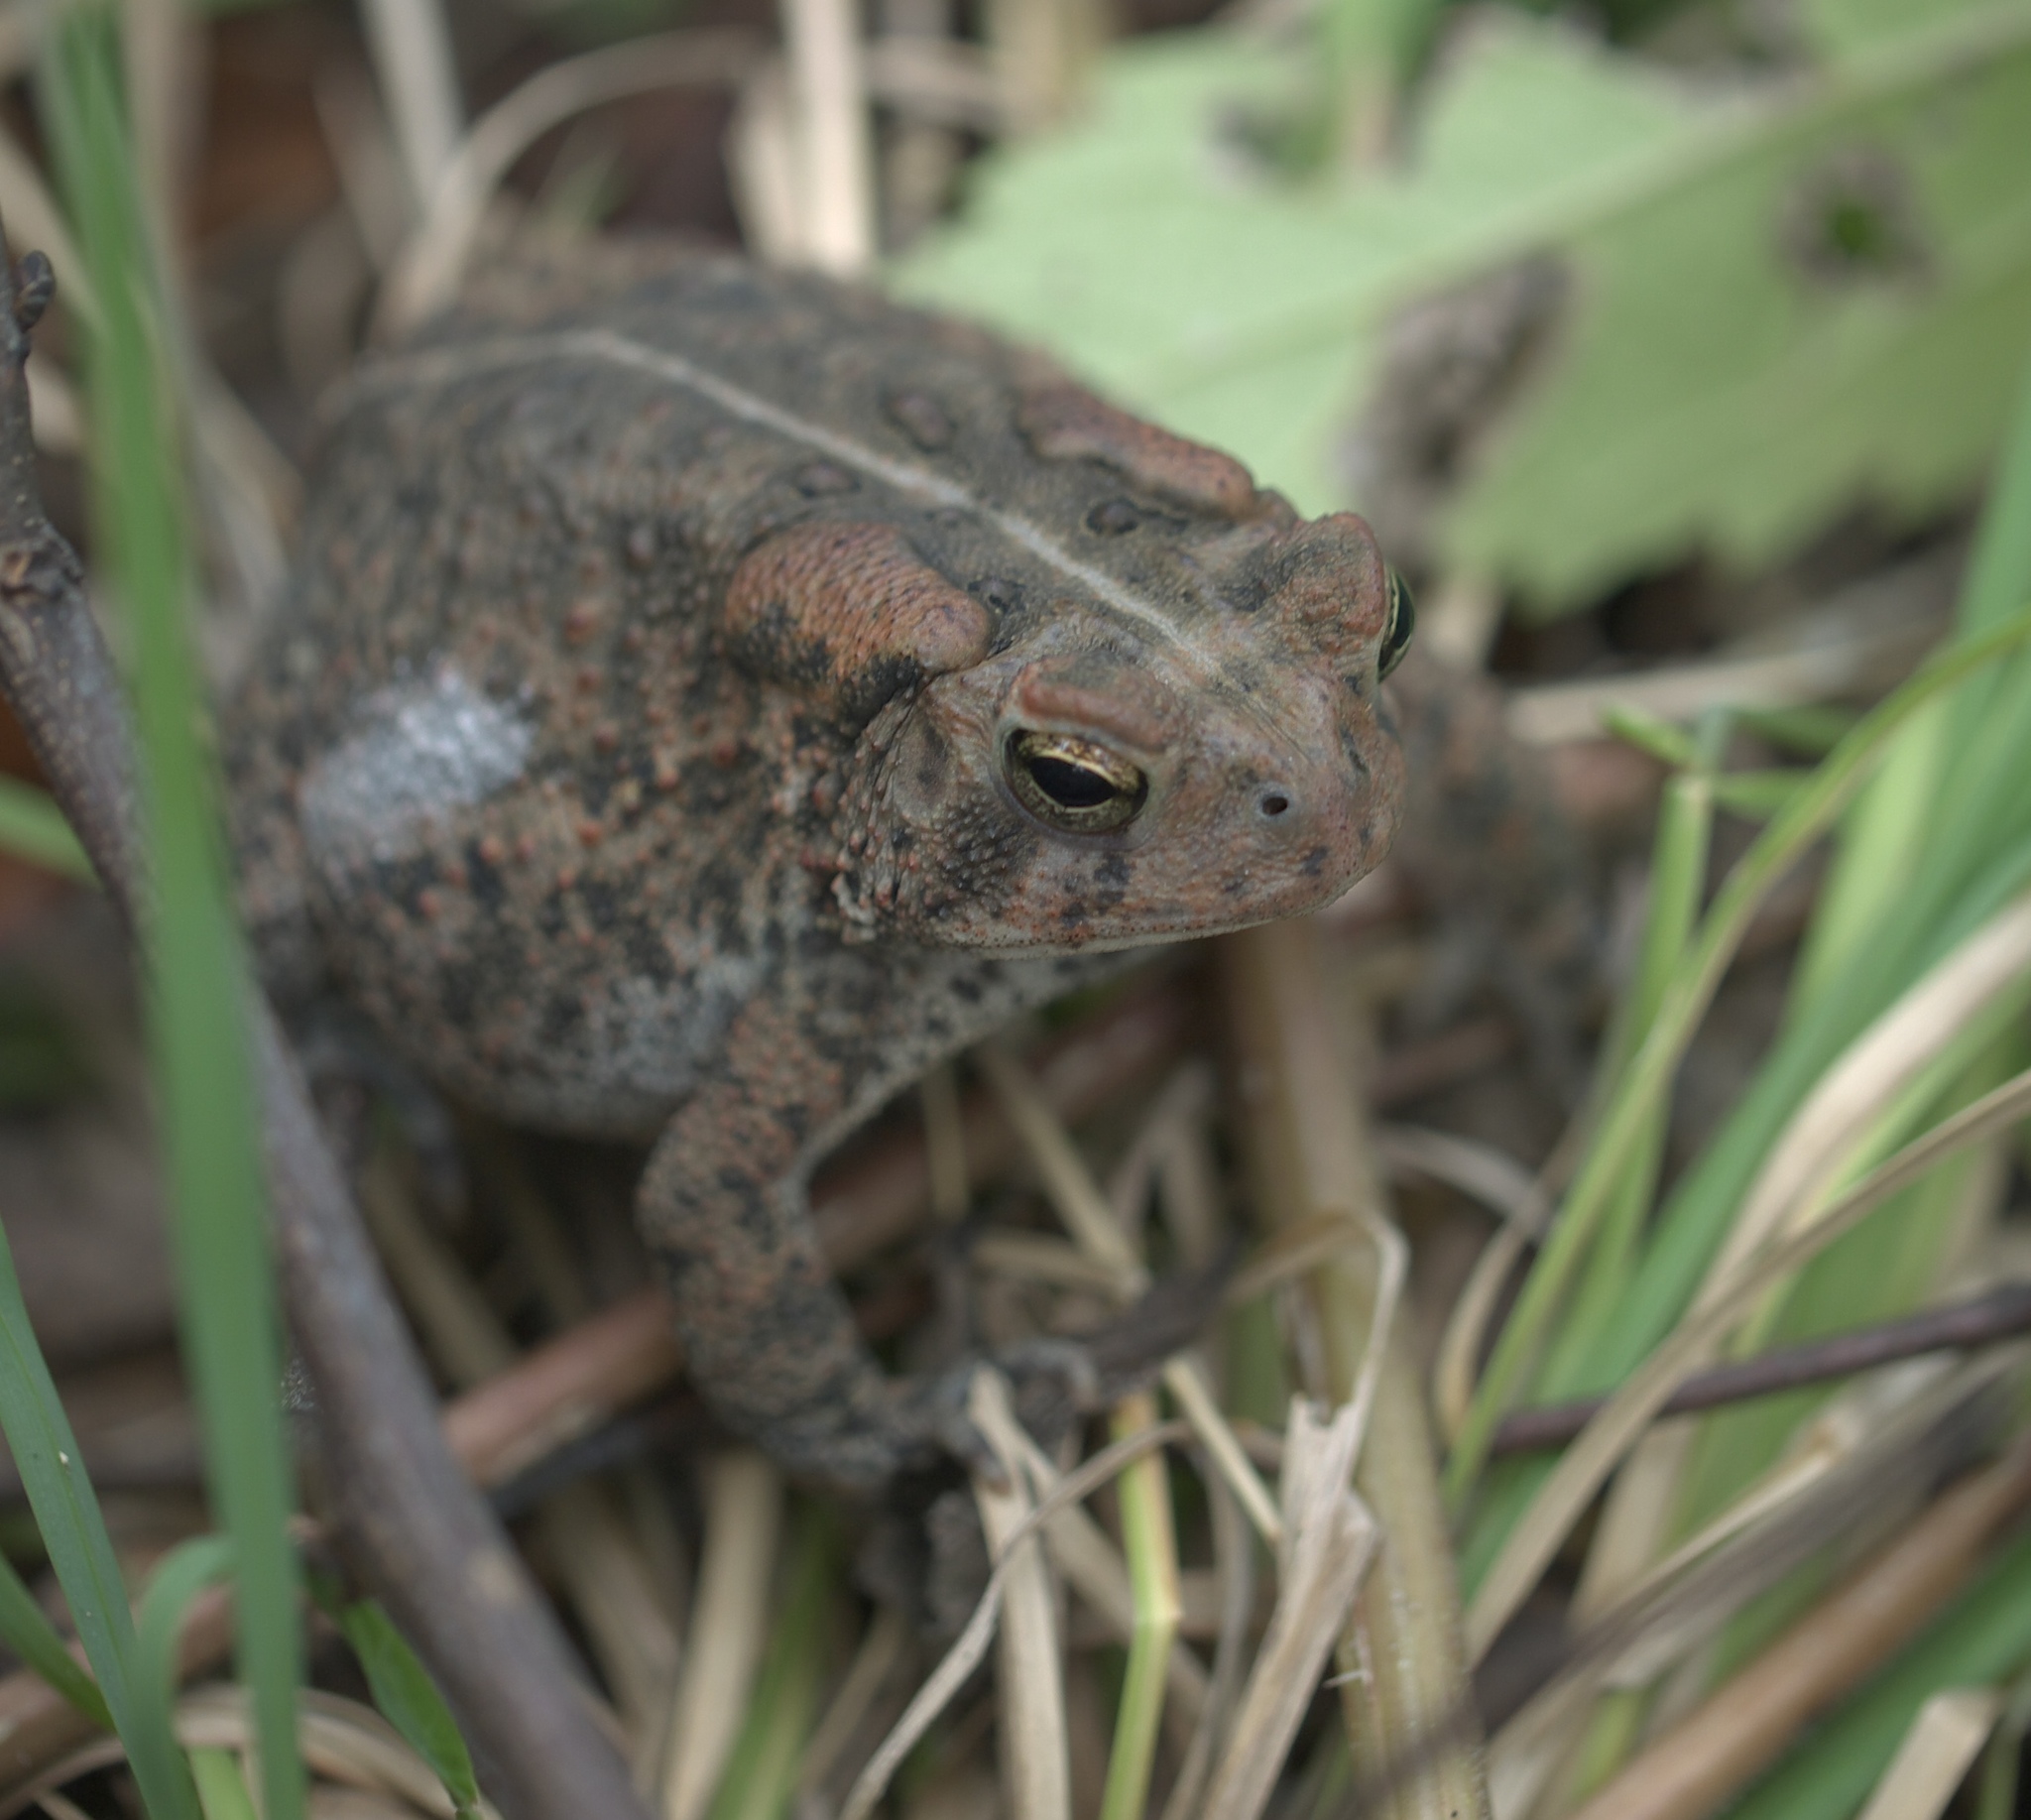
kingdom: Animalia
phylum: Chordata
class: Amphibia
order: Anura
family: Bufonidae
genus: Anaxyrus
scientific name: Anaxyrus americanus
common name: American toad
